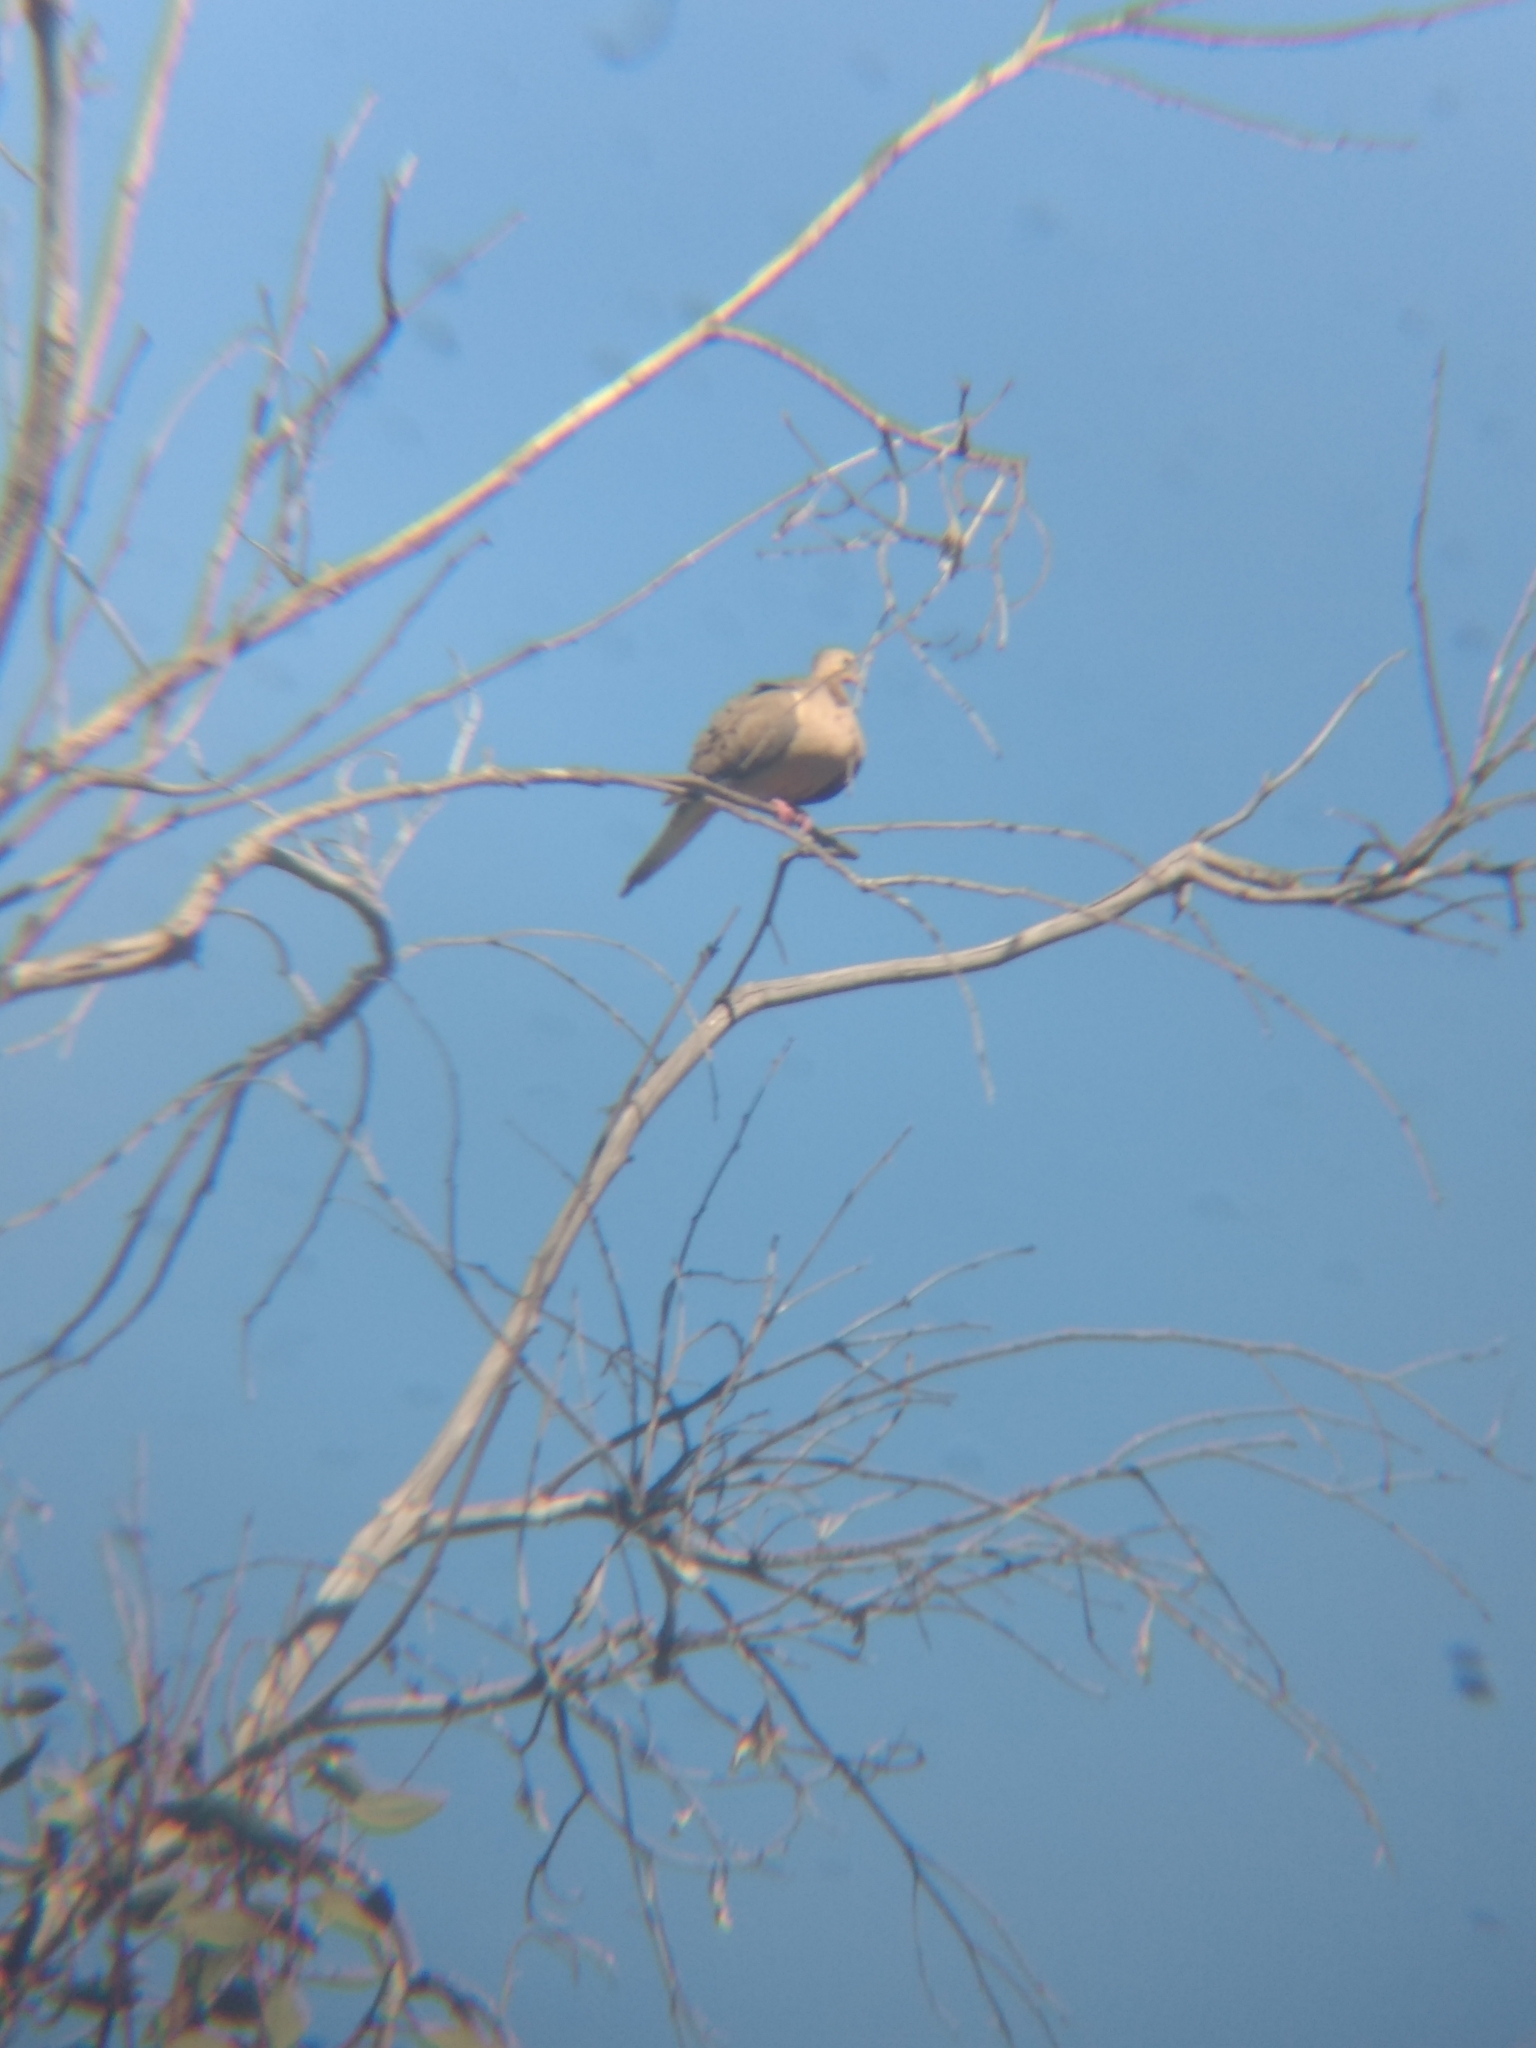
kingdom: Animalia
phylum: Chordata
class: Aves
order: Columbiformes
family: Columbidae
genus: Zenaida
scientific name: Zenaida macroura
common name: Mourning dove
